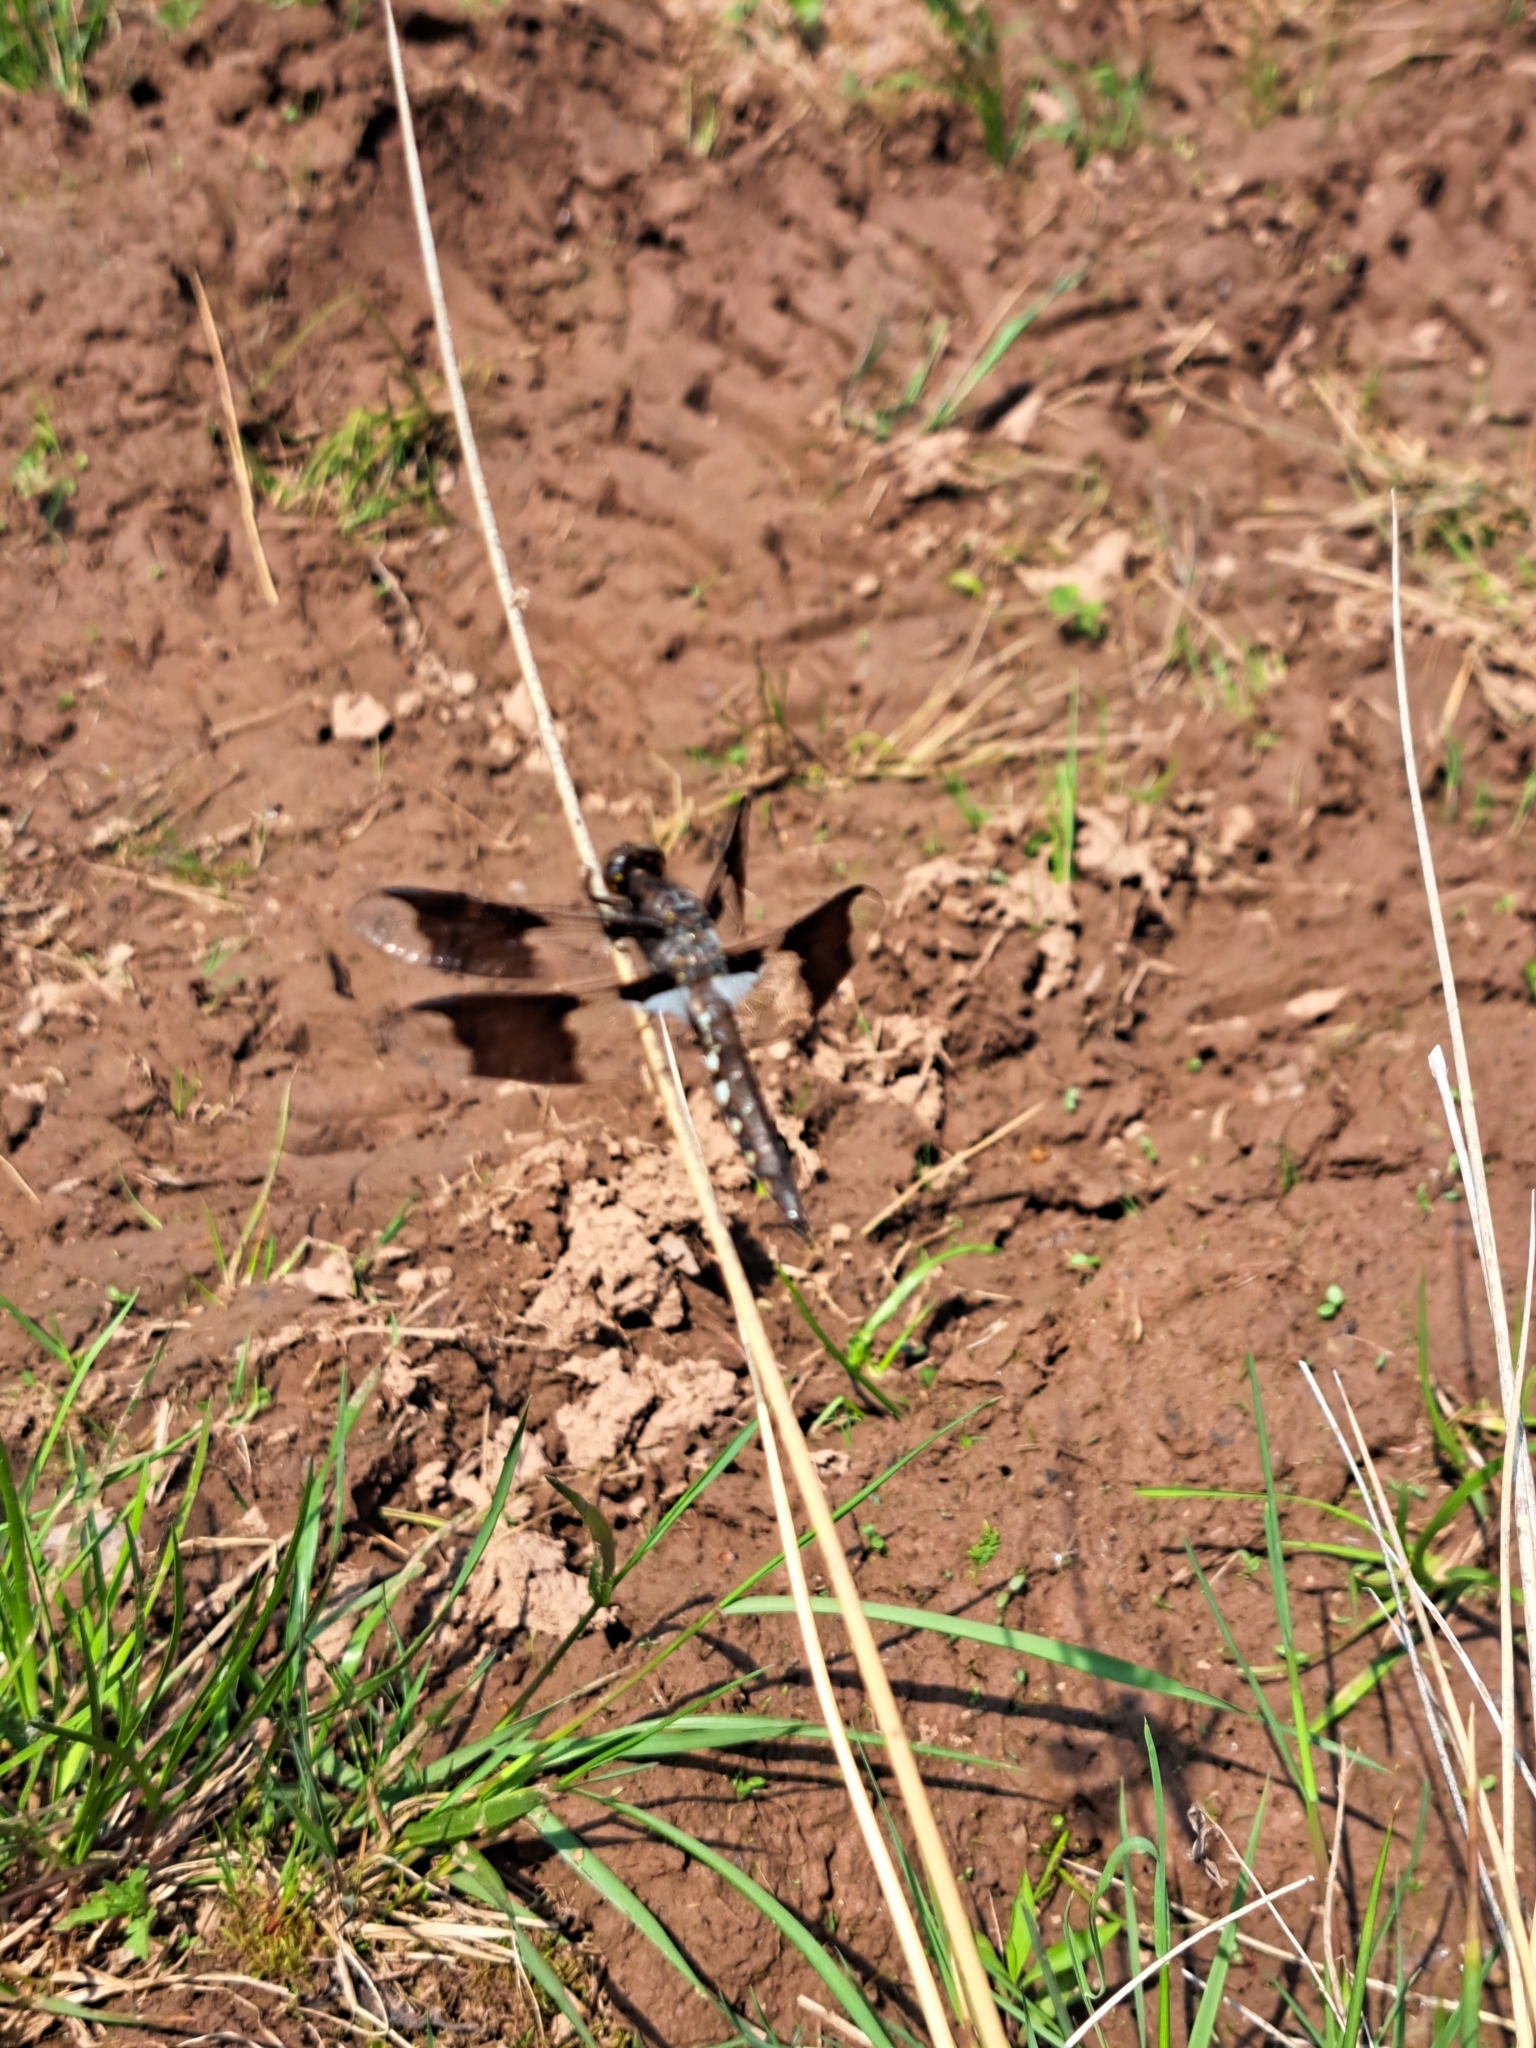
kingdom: Animalia
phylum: Arthropoda
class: Insecta
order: Odonata
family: Libellulidae
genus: Plathemis
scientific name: Plathemis lydia
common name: Common whitetail
